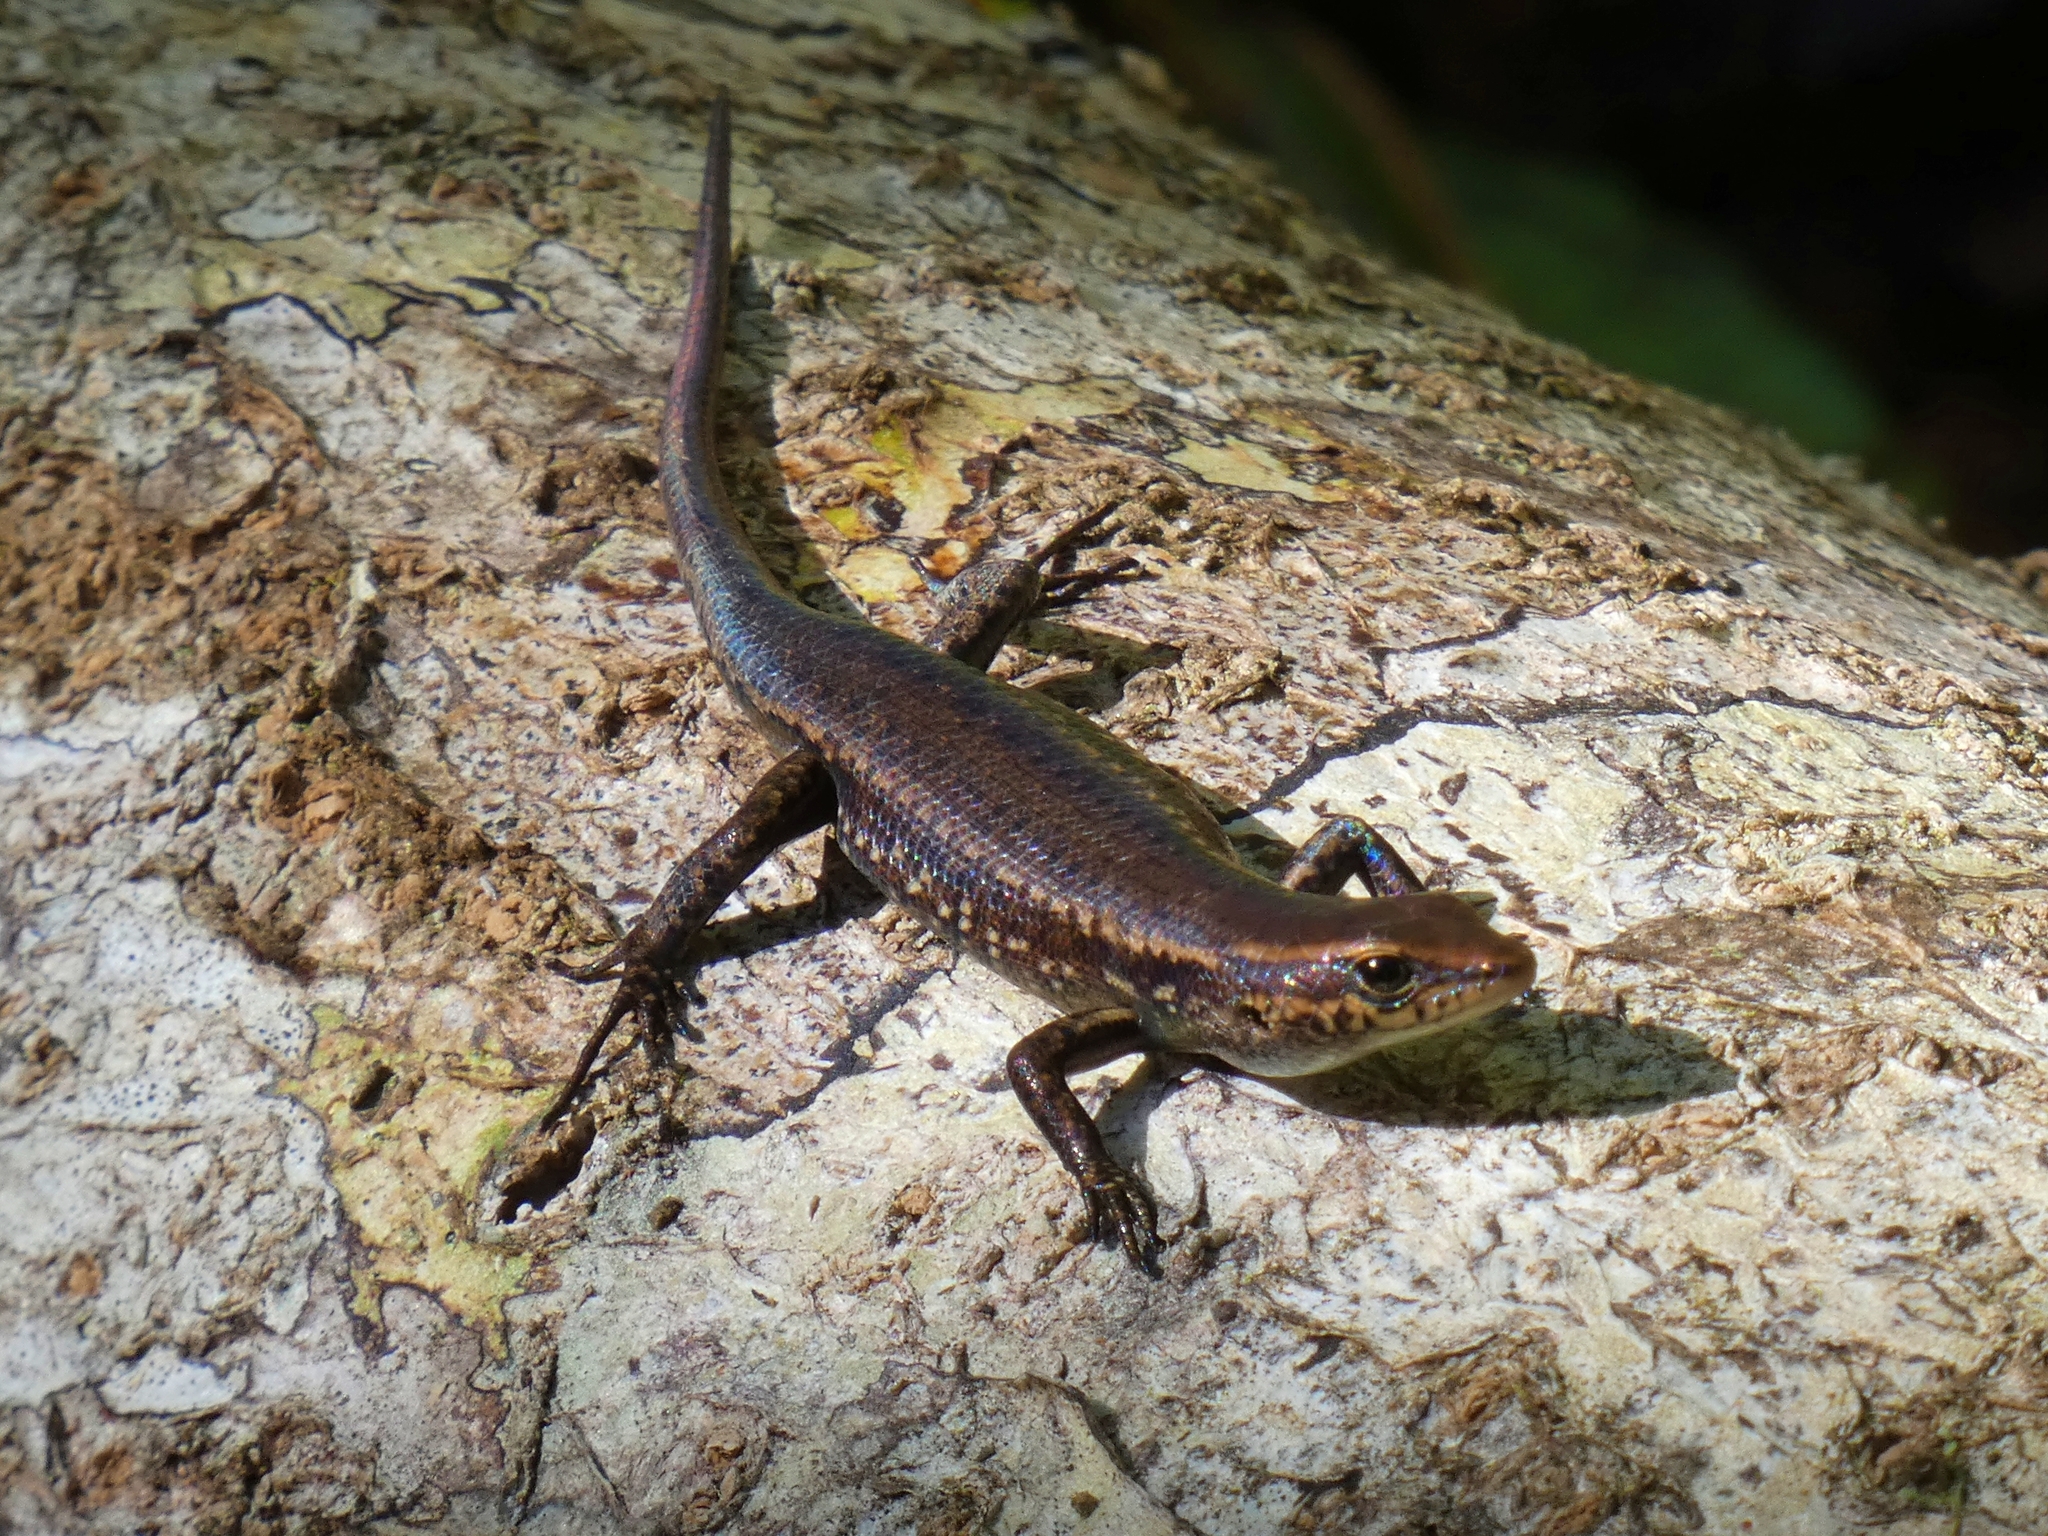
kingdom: Animalia
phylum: Chordata
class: Squamata
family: Scincidae
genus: Carlia
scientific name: Carlia crypta
